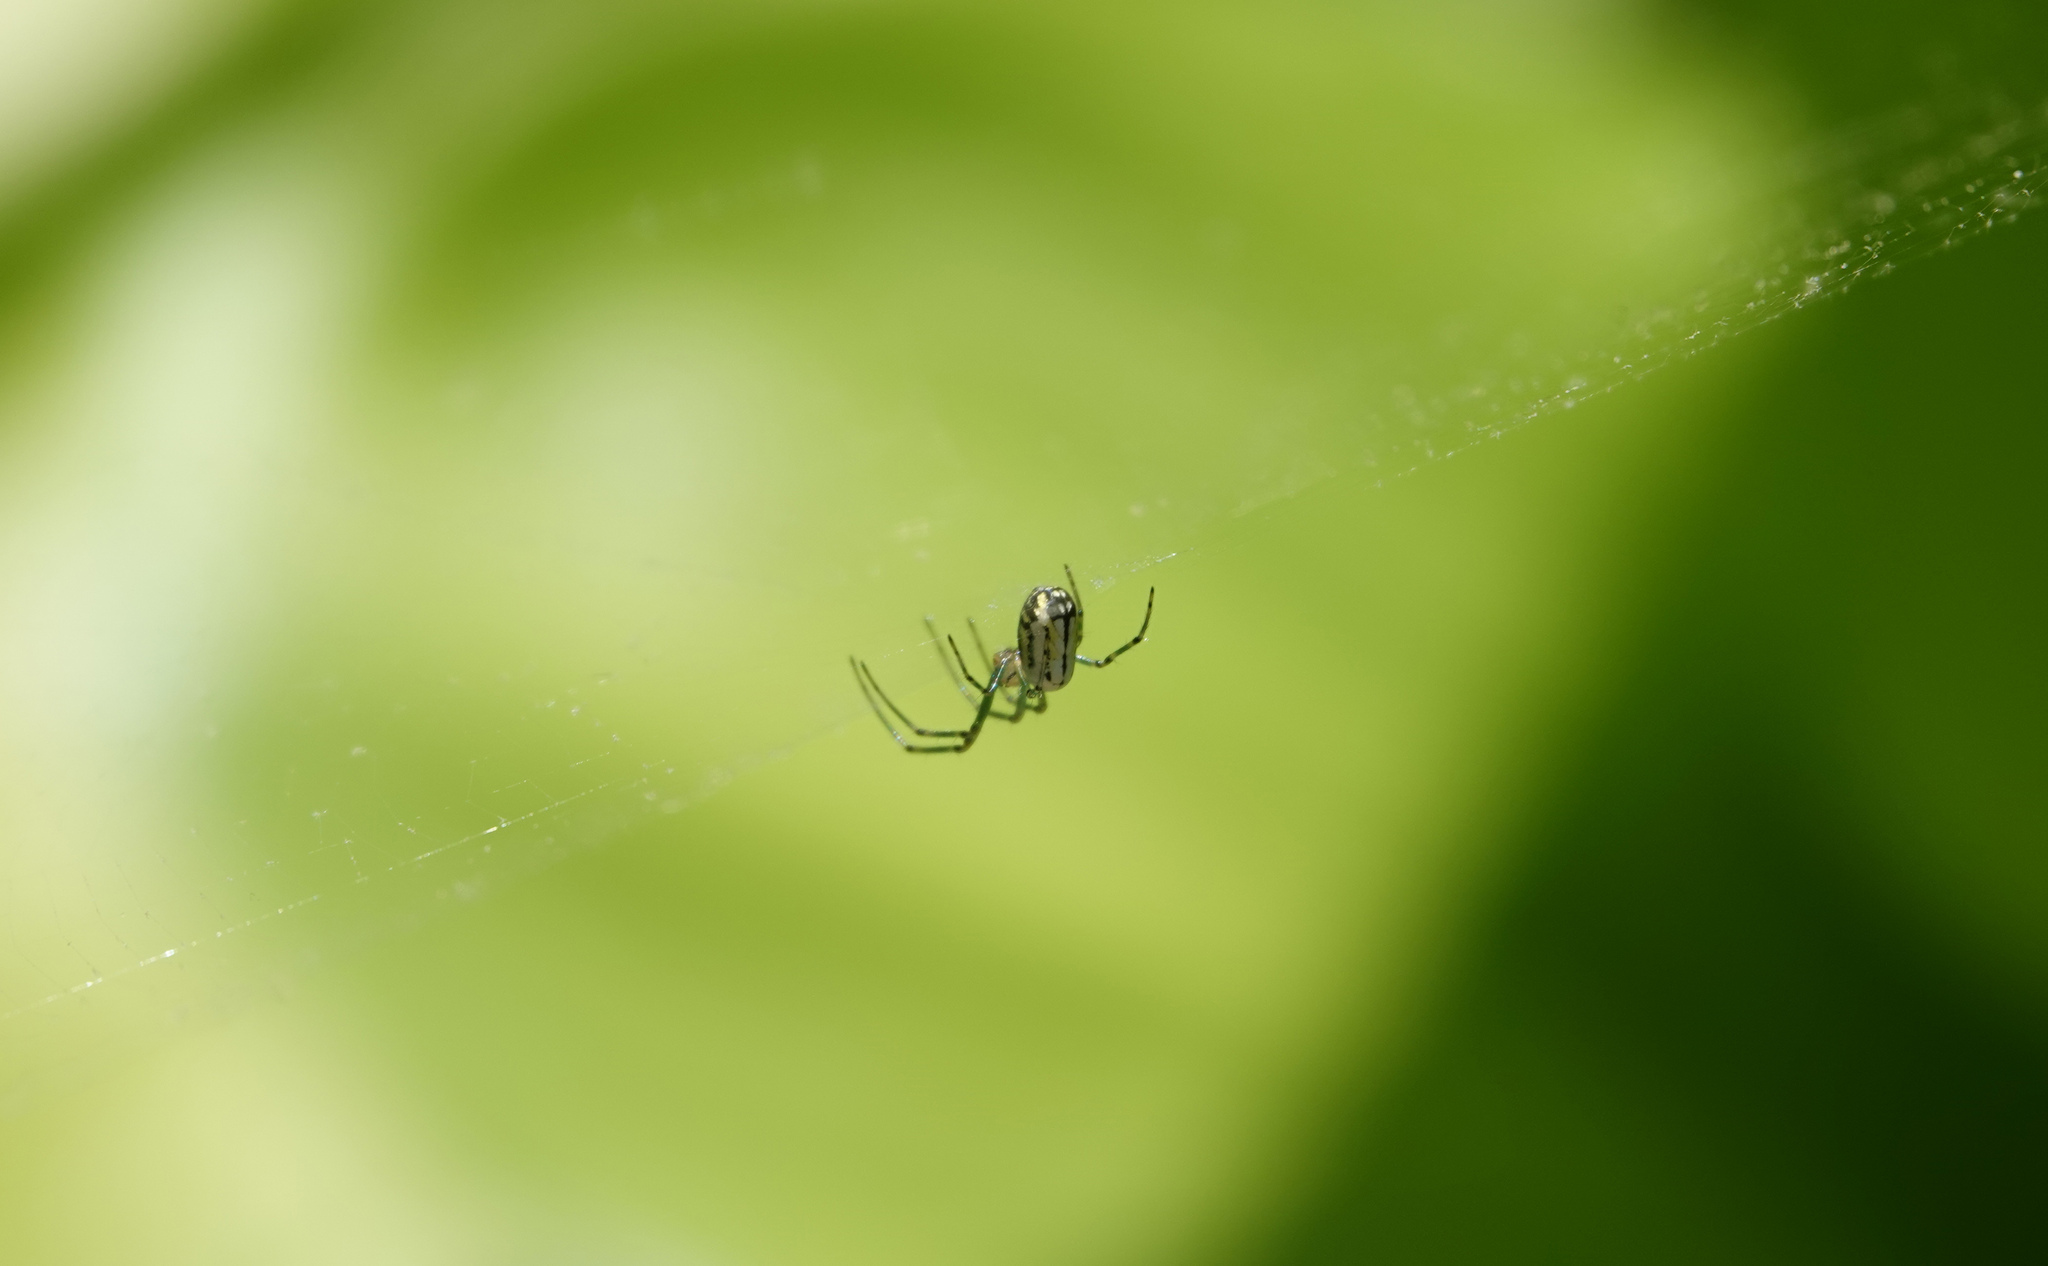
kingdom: Animalia
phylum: Arthropoda
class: Arachnida
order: Araneae
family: Tetragnathidae
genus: Leucauge
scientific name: Leucauge venusta
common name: Longjawed orb weavers
